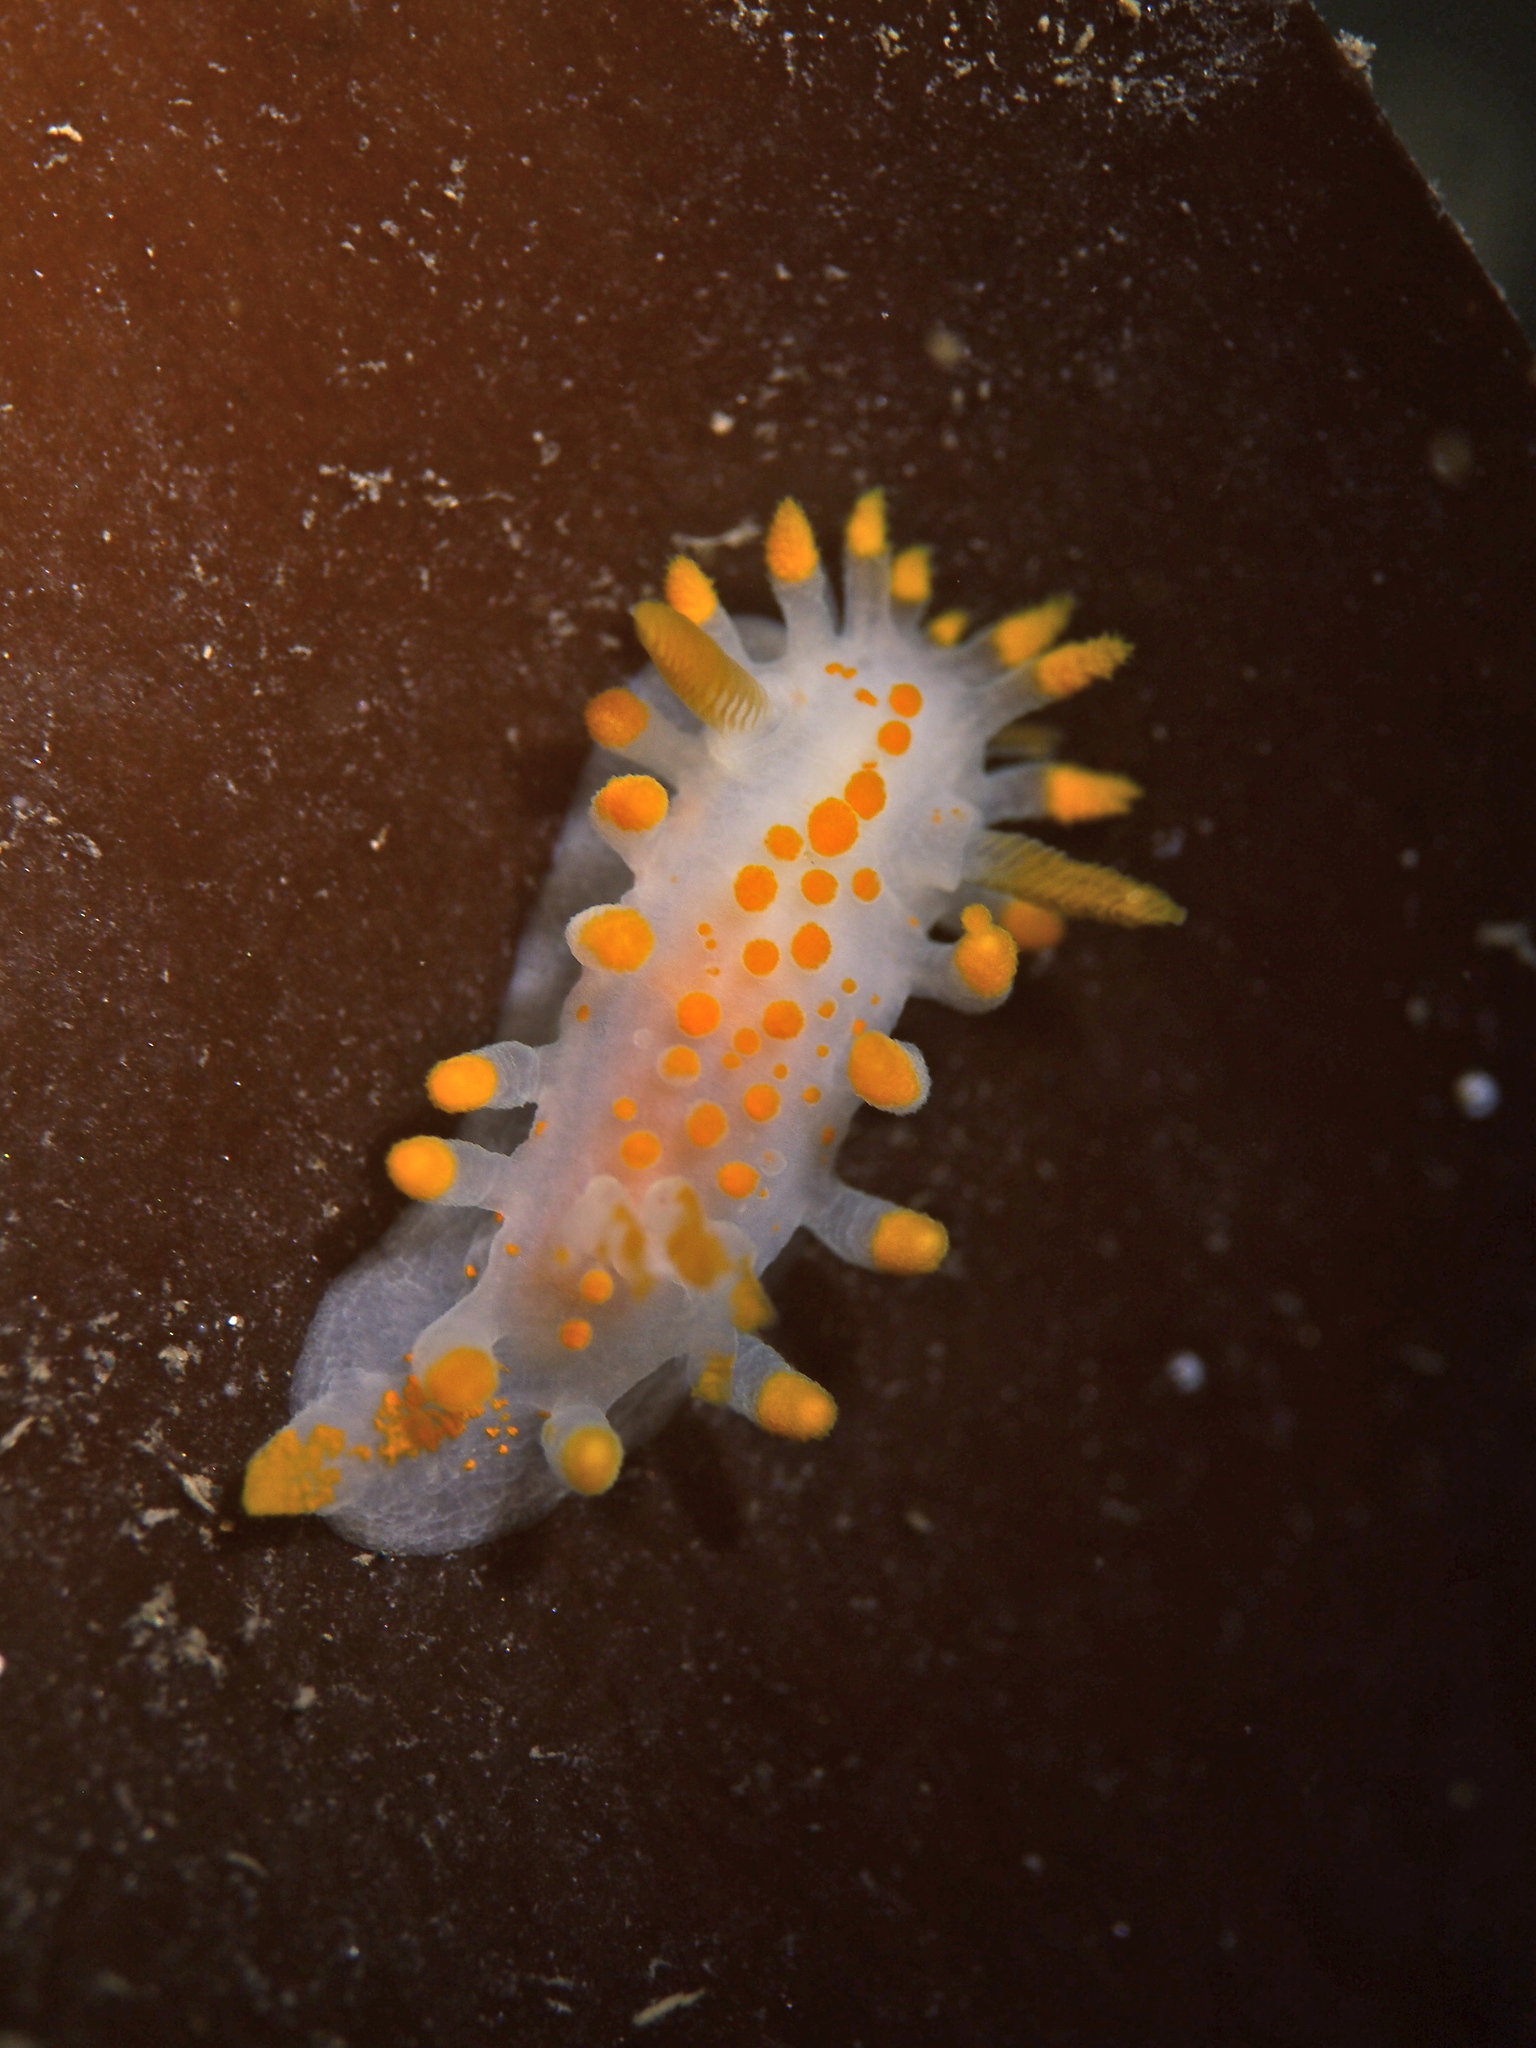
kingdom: Animalia
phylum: Mollusca
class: Gastropoda
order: Nudibranchia
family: Polyceridae
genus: Limacia
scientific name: Limacia clavigera
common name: Orange-clubbed sea slug
